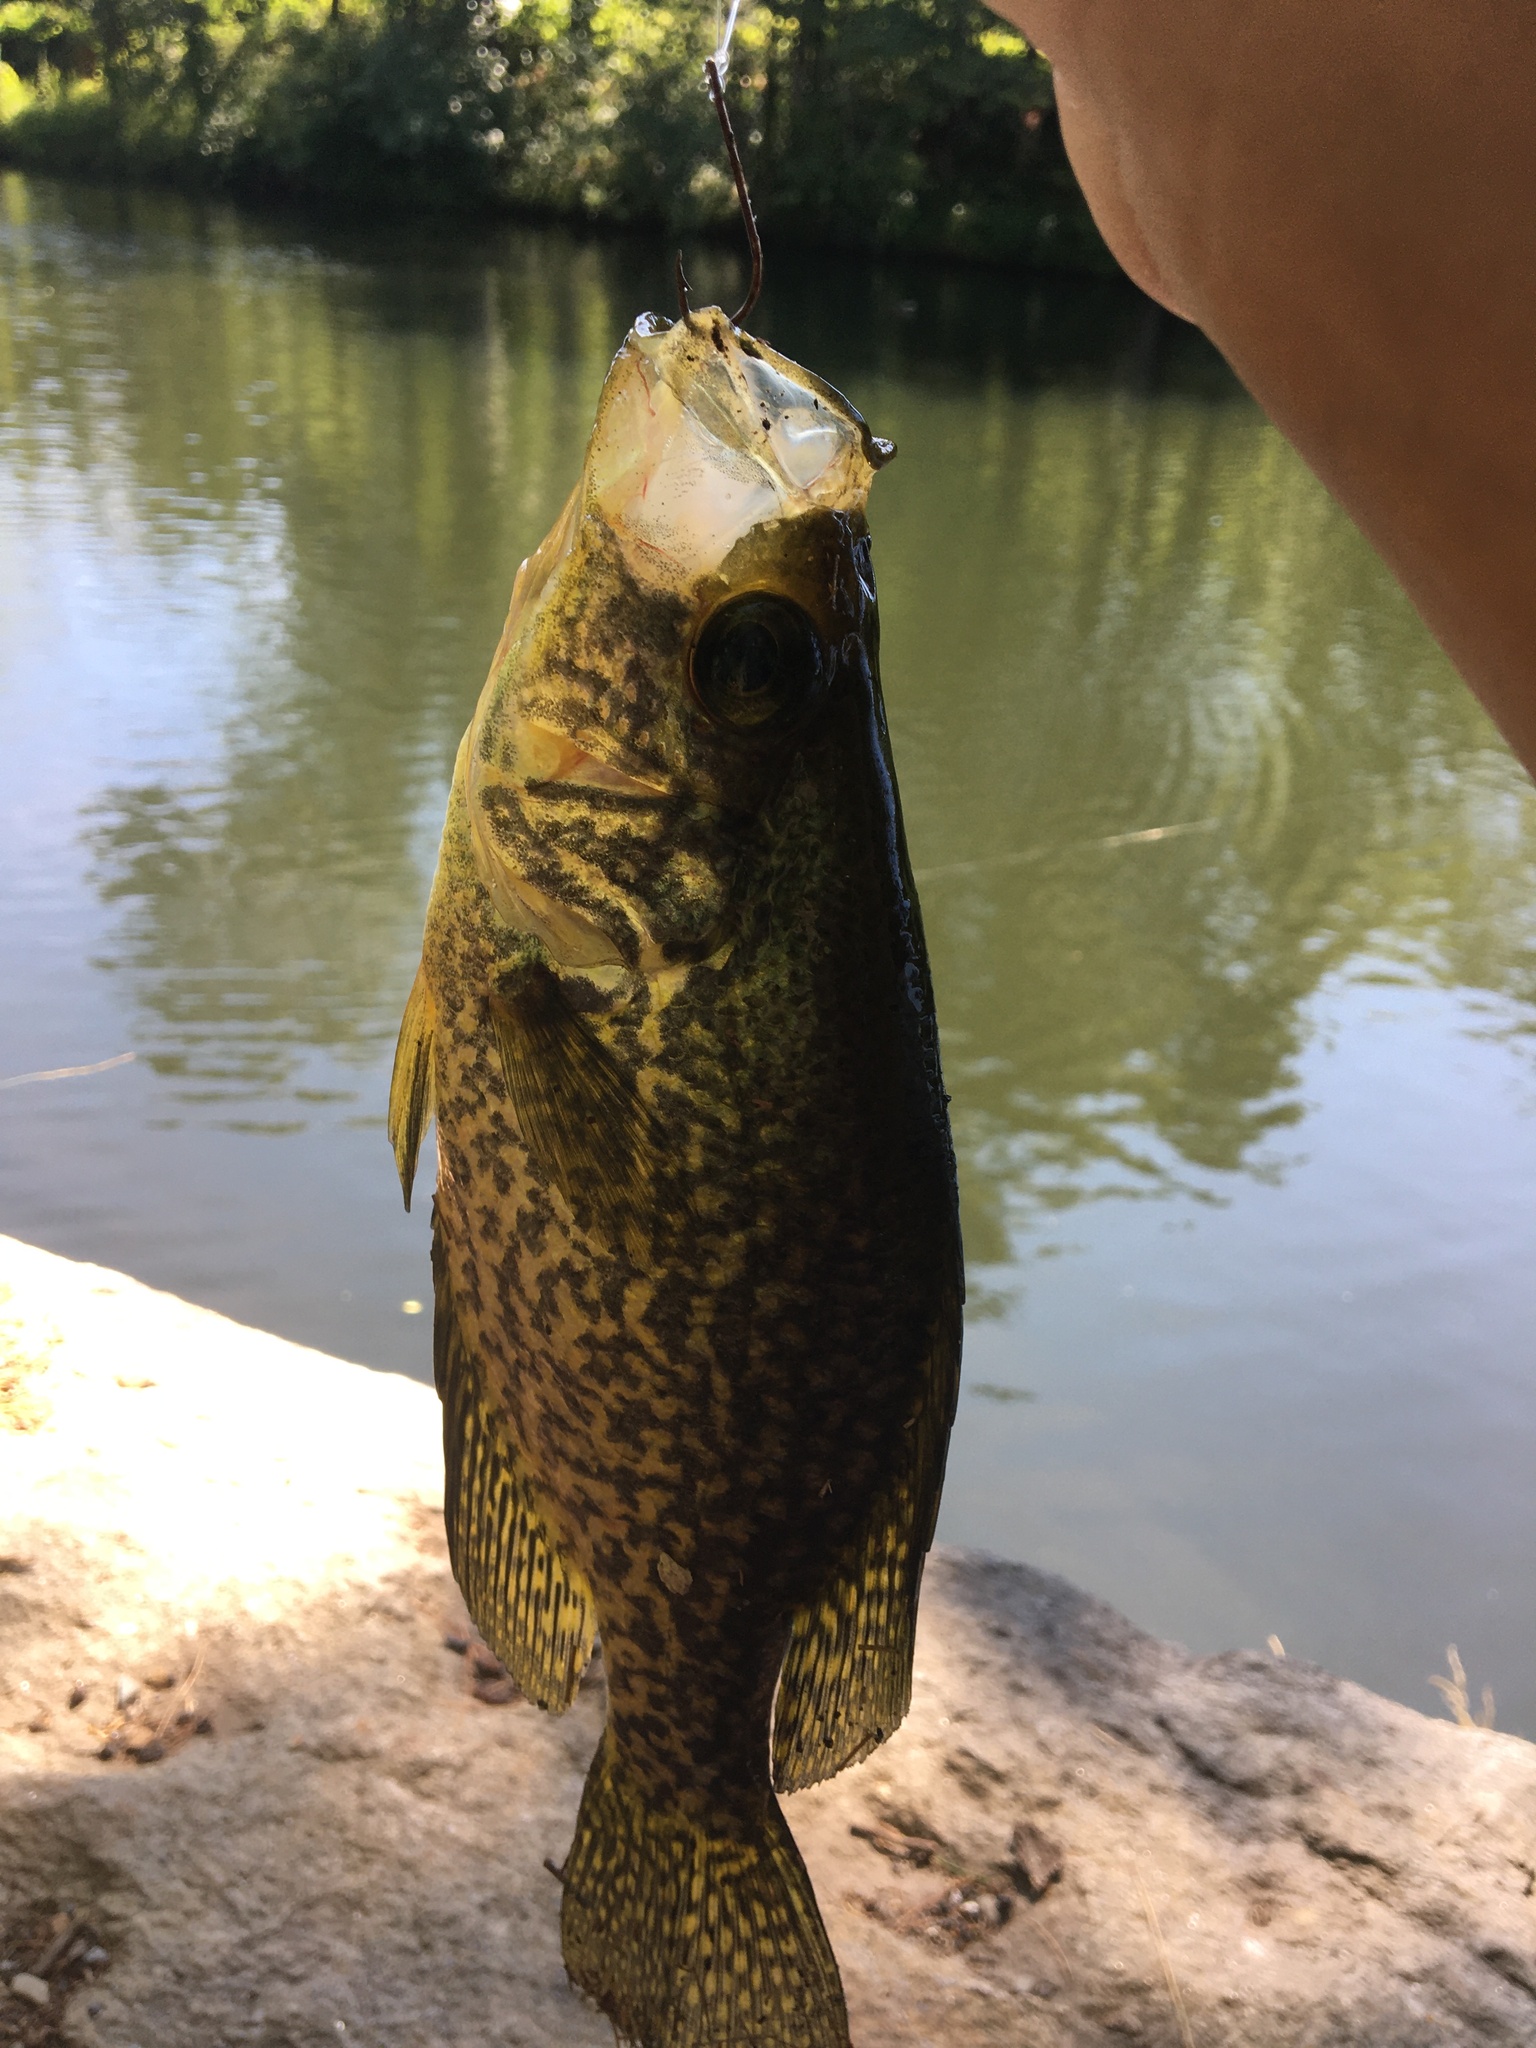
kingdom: Animalia
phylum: Chordata
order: Perciformes
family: Centrarchidae
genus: Pomoxis
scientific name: Pomoxis nigromaculatus
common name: Black crappie
